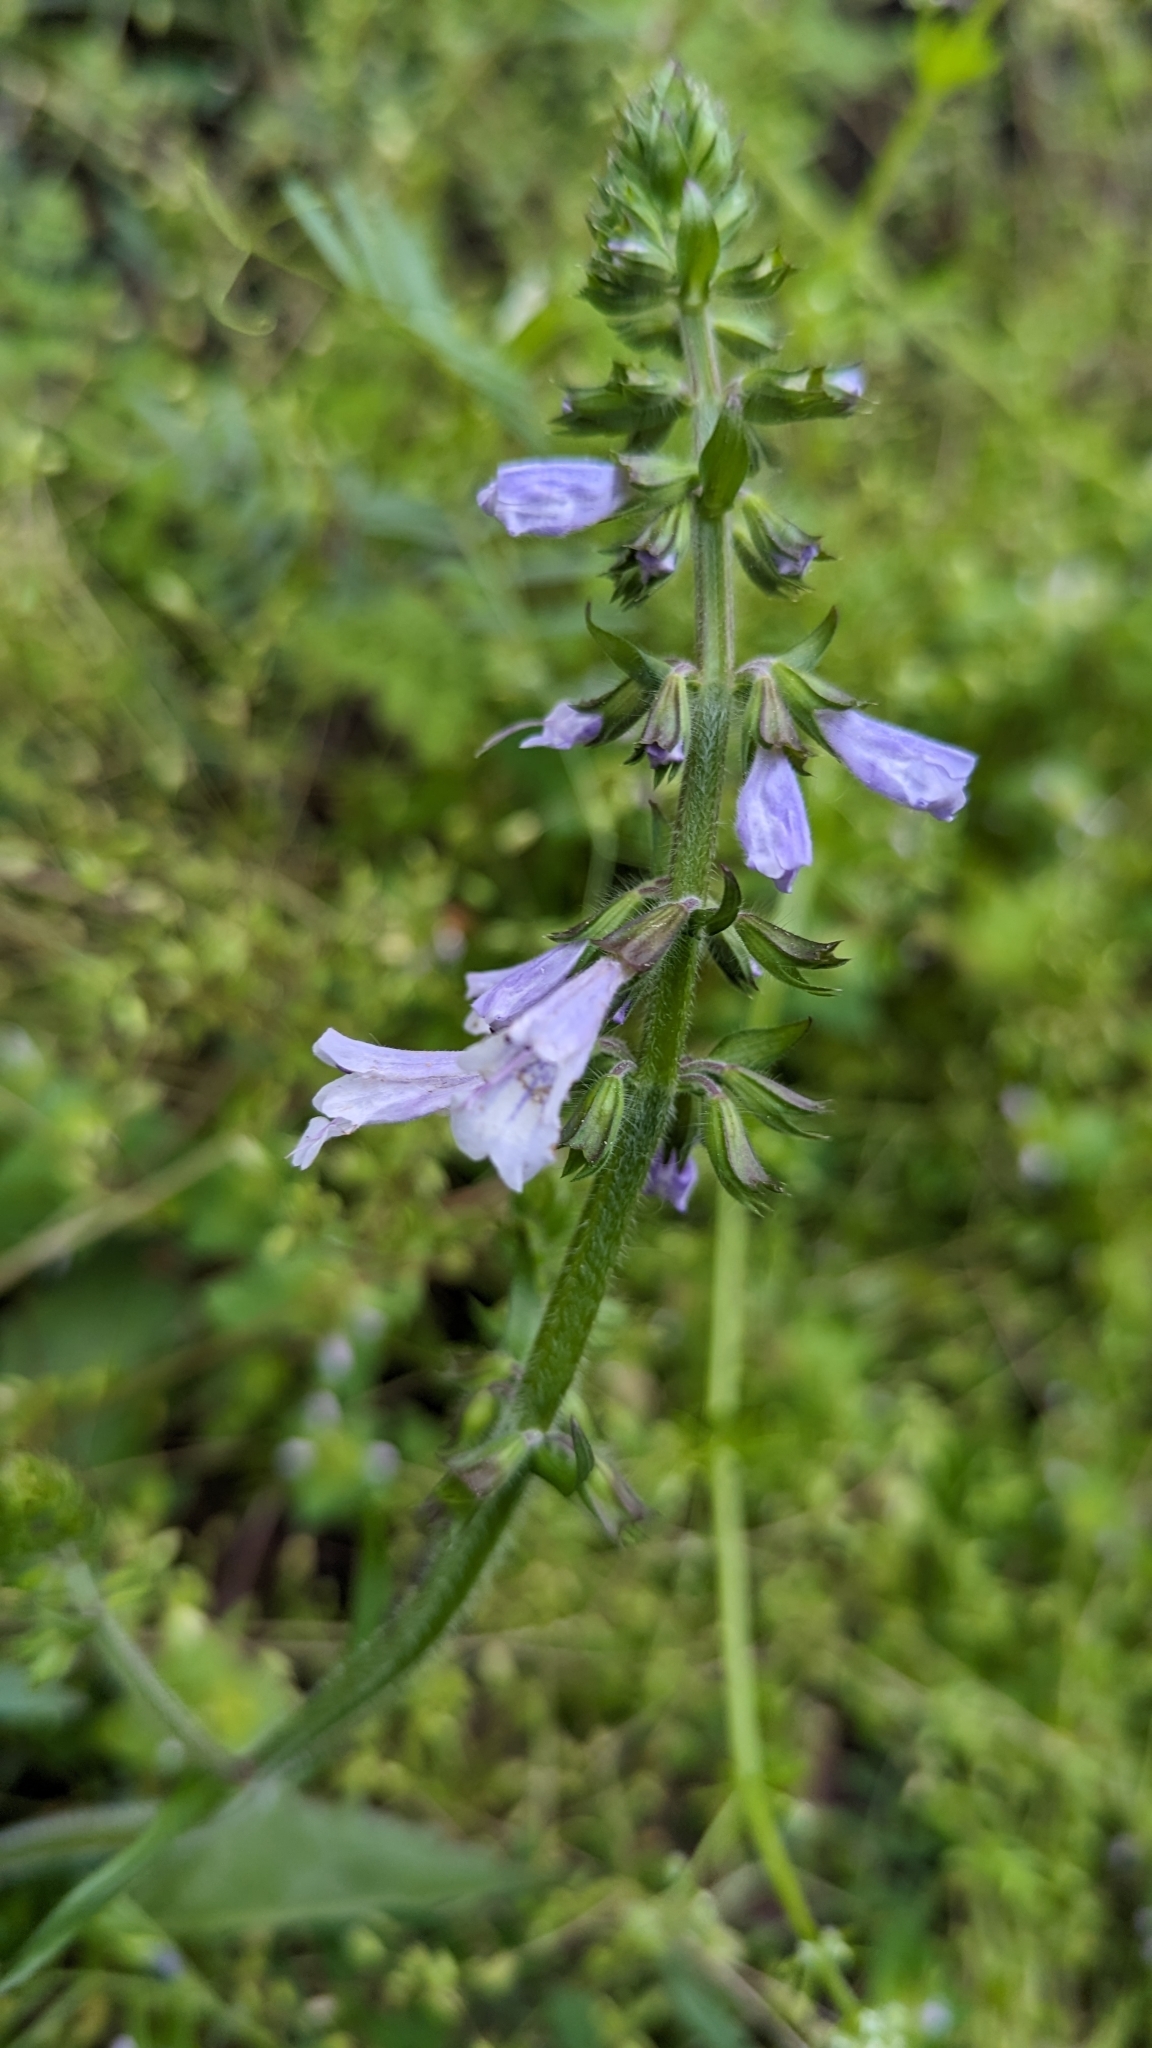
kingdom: Plantae
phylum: Tracheophyta
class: Magnoliopsida
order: Lamiales
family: Lamiaceae
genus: Salvia
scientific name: Salvia lyrata
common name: Cancerweed
